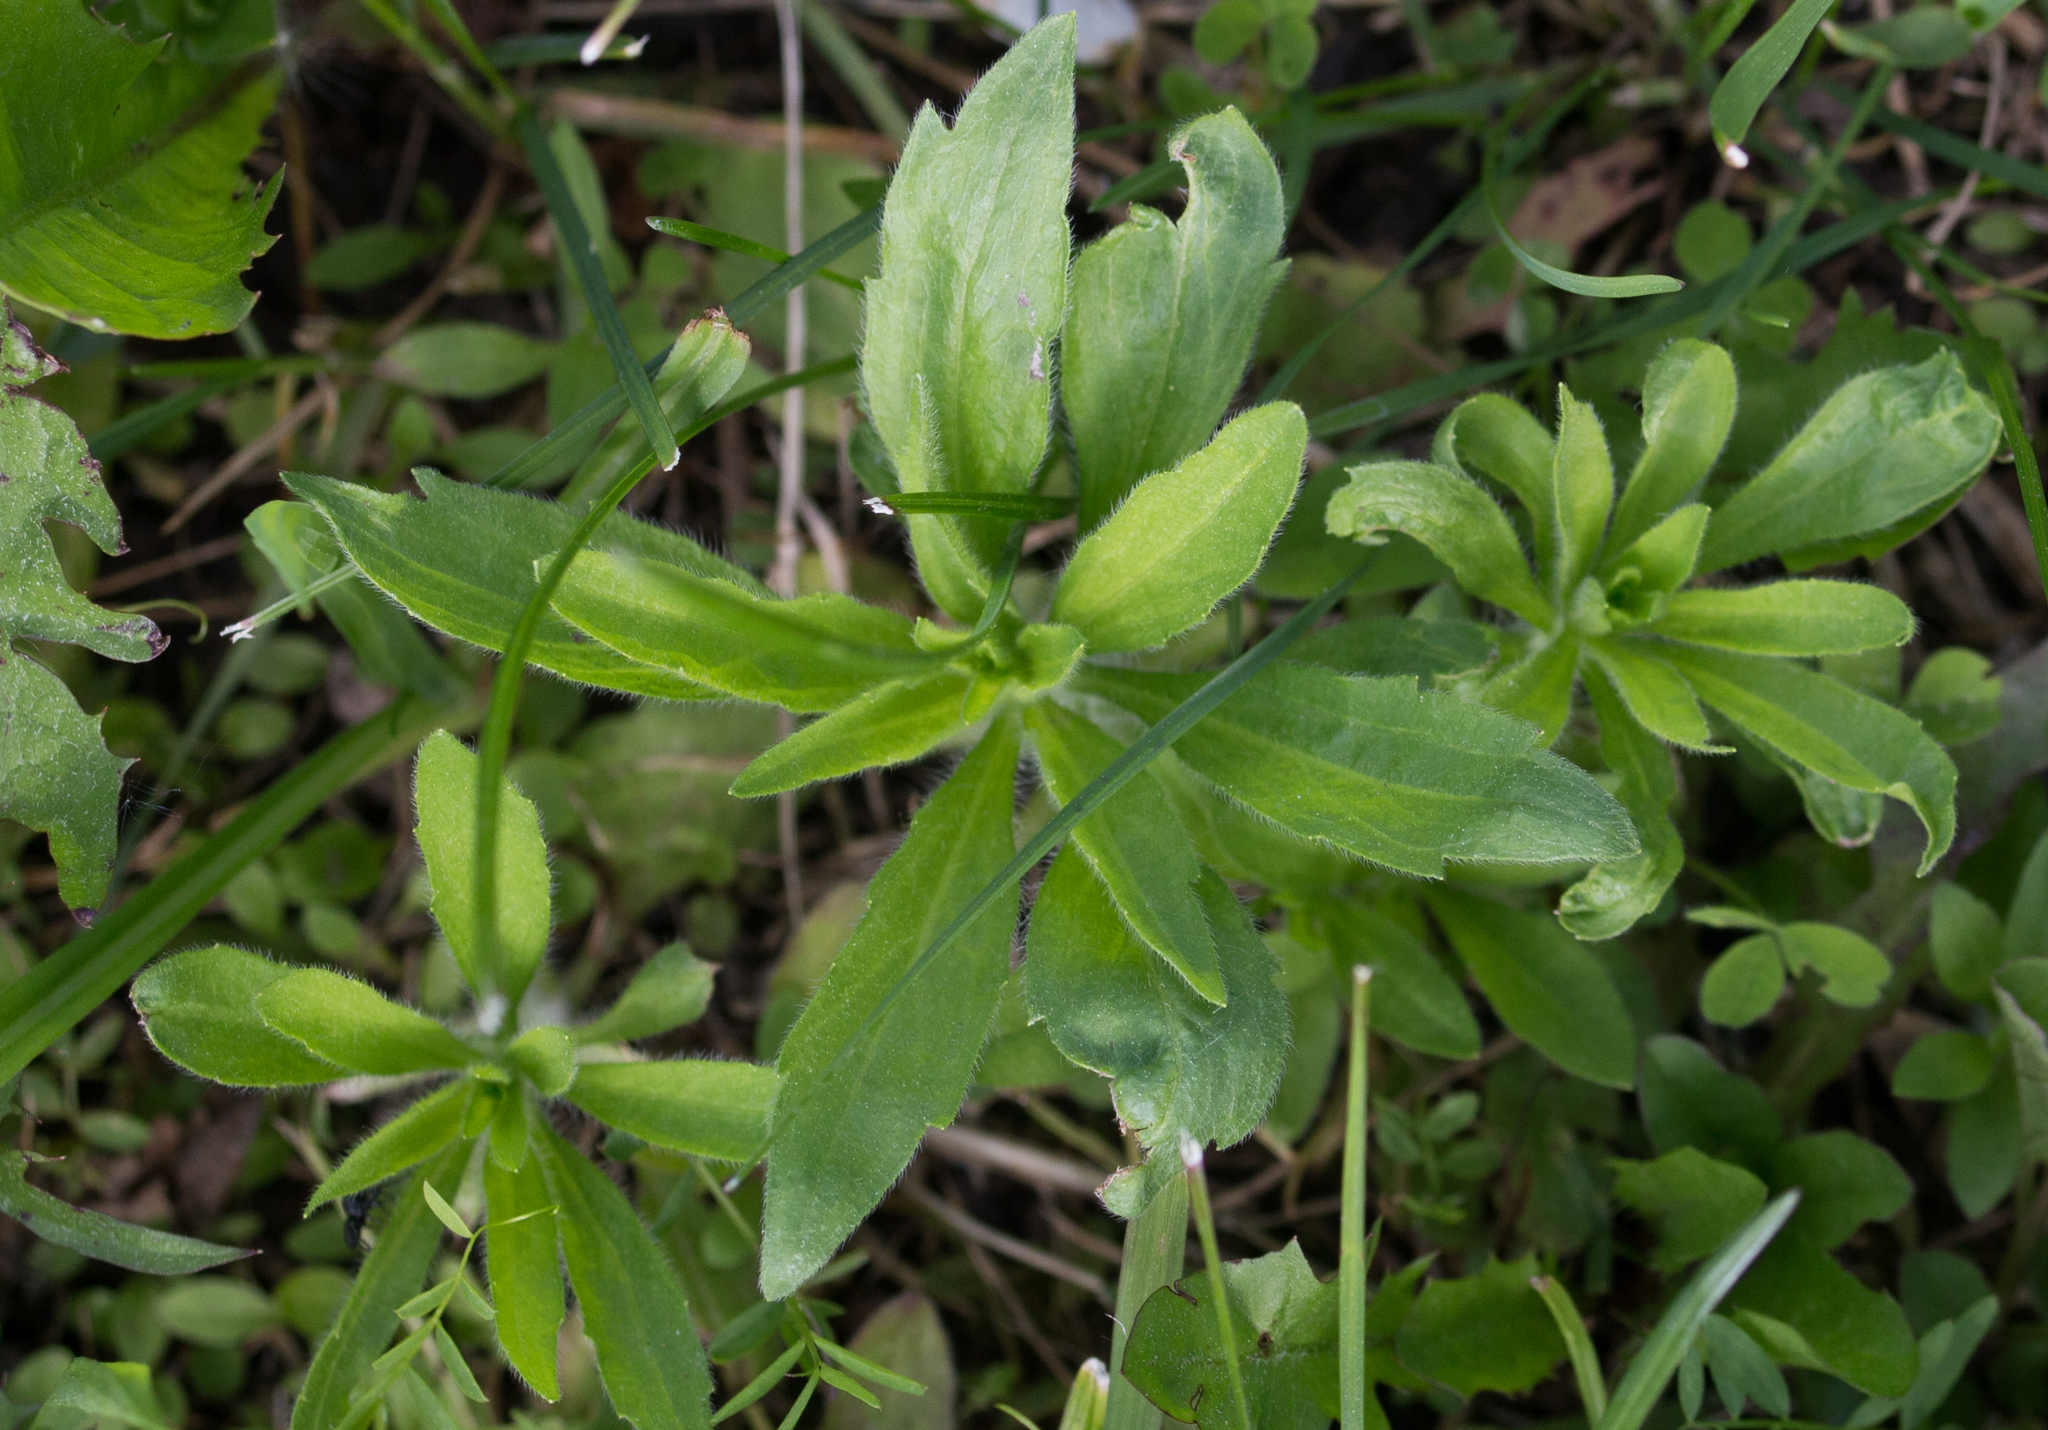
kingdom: Plantae
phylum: Tracheophyta
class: Magnoliopsida
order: Asterales
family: Asteraceae
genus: Erigeron
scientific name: Erigeron canadensis
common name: Canadian fleabane
